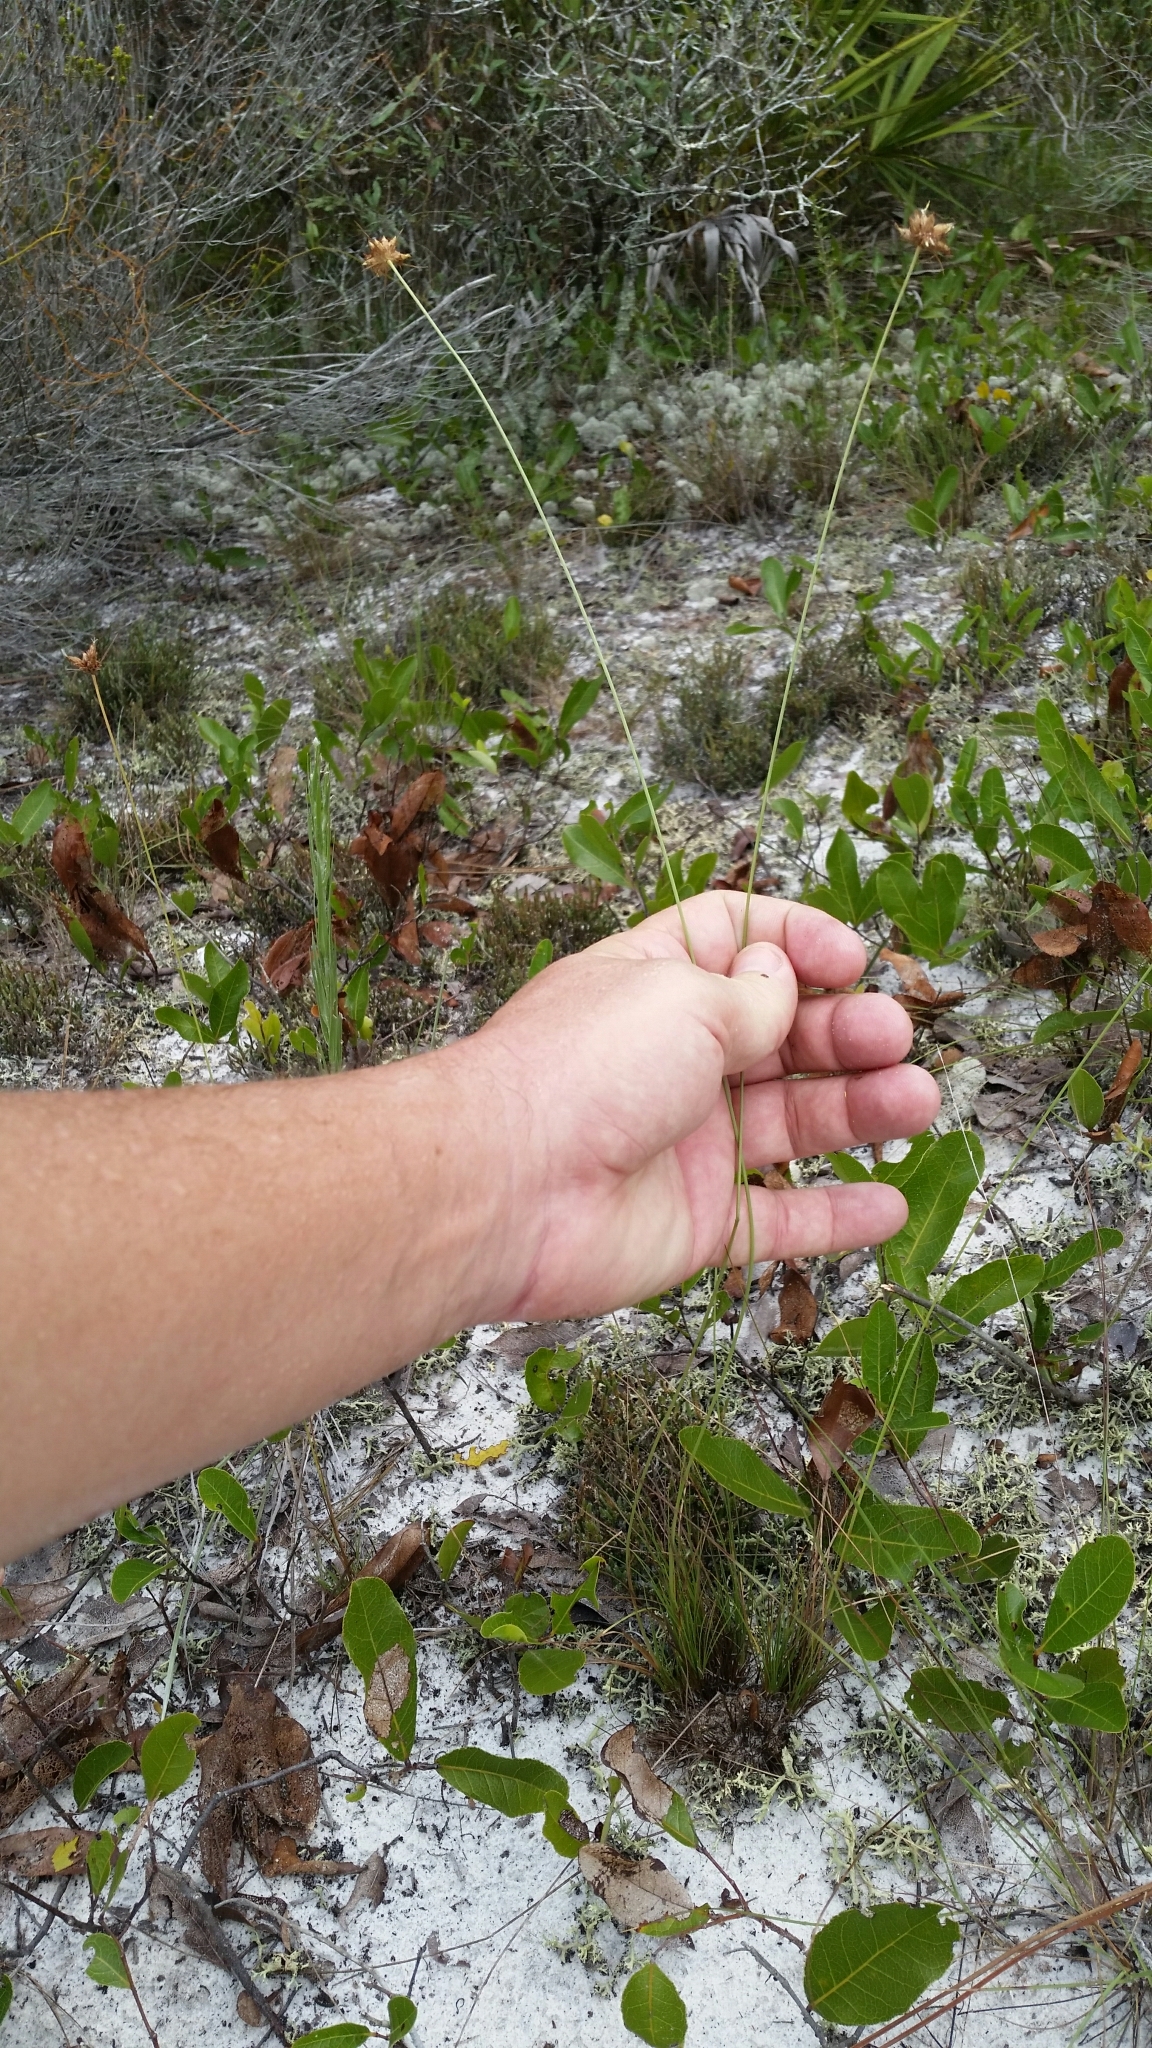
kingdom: Plantae
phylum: Tracheophyta
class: Liliopsida
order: Poales
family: Cyperaceae
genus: Bulbostylis
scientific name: Bulbostylis warei
